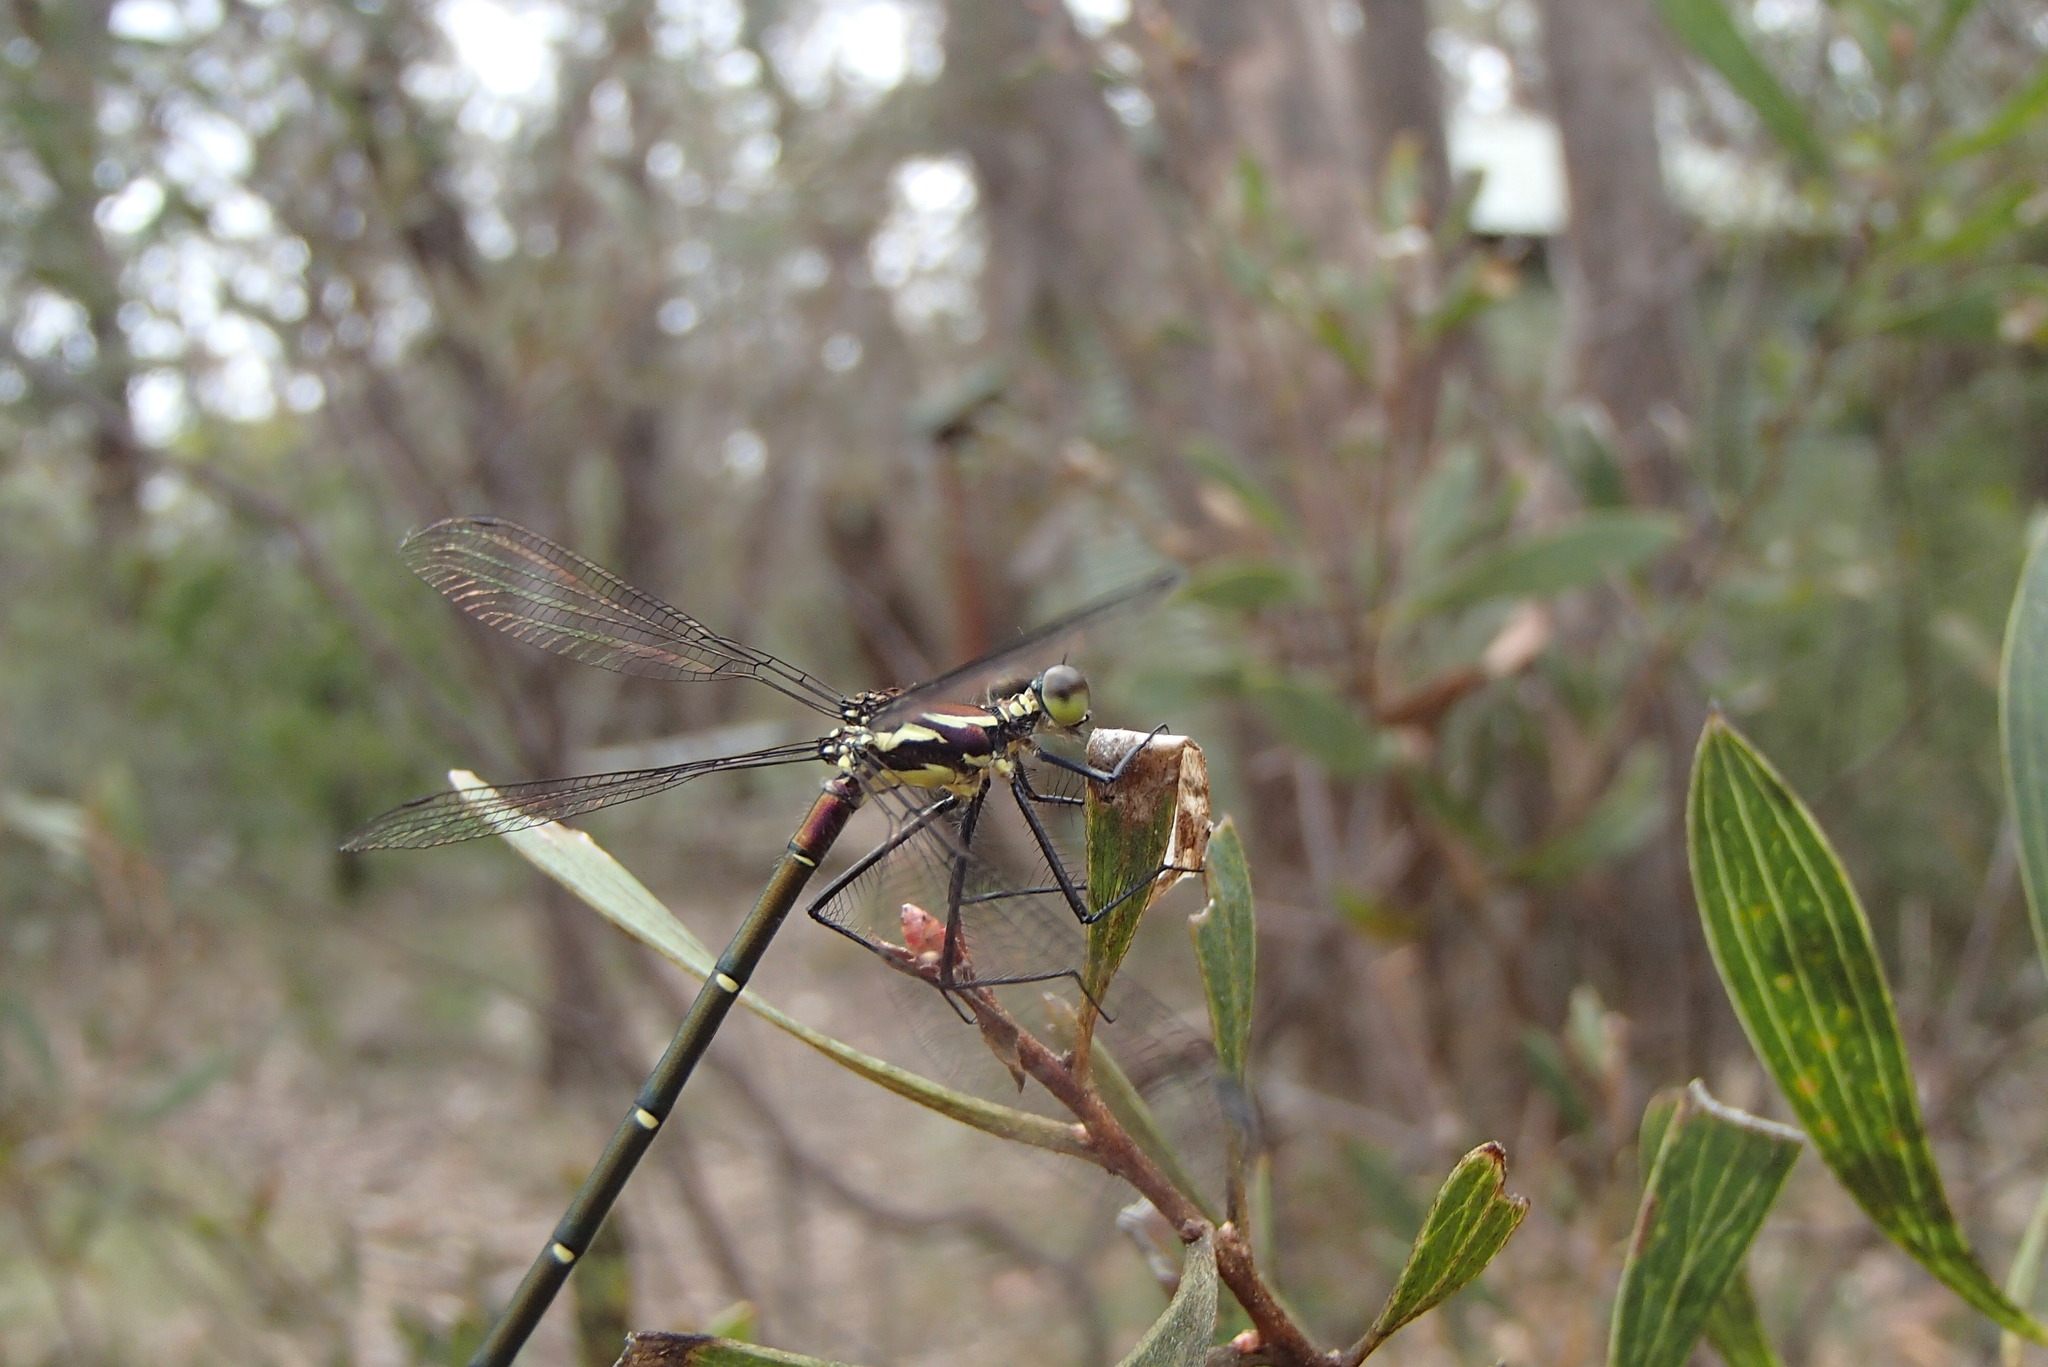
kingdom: Animalia
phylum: Arthropoda
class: Insecta
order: Odonata
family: Argiolestidae
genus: Austroargiolestes
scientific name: Austroargiolestes isabellae
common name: Sydney flatwing
